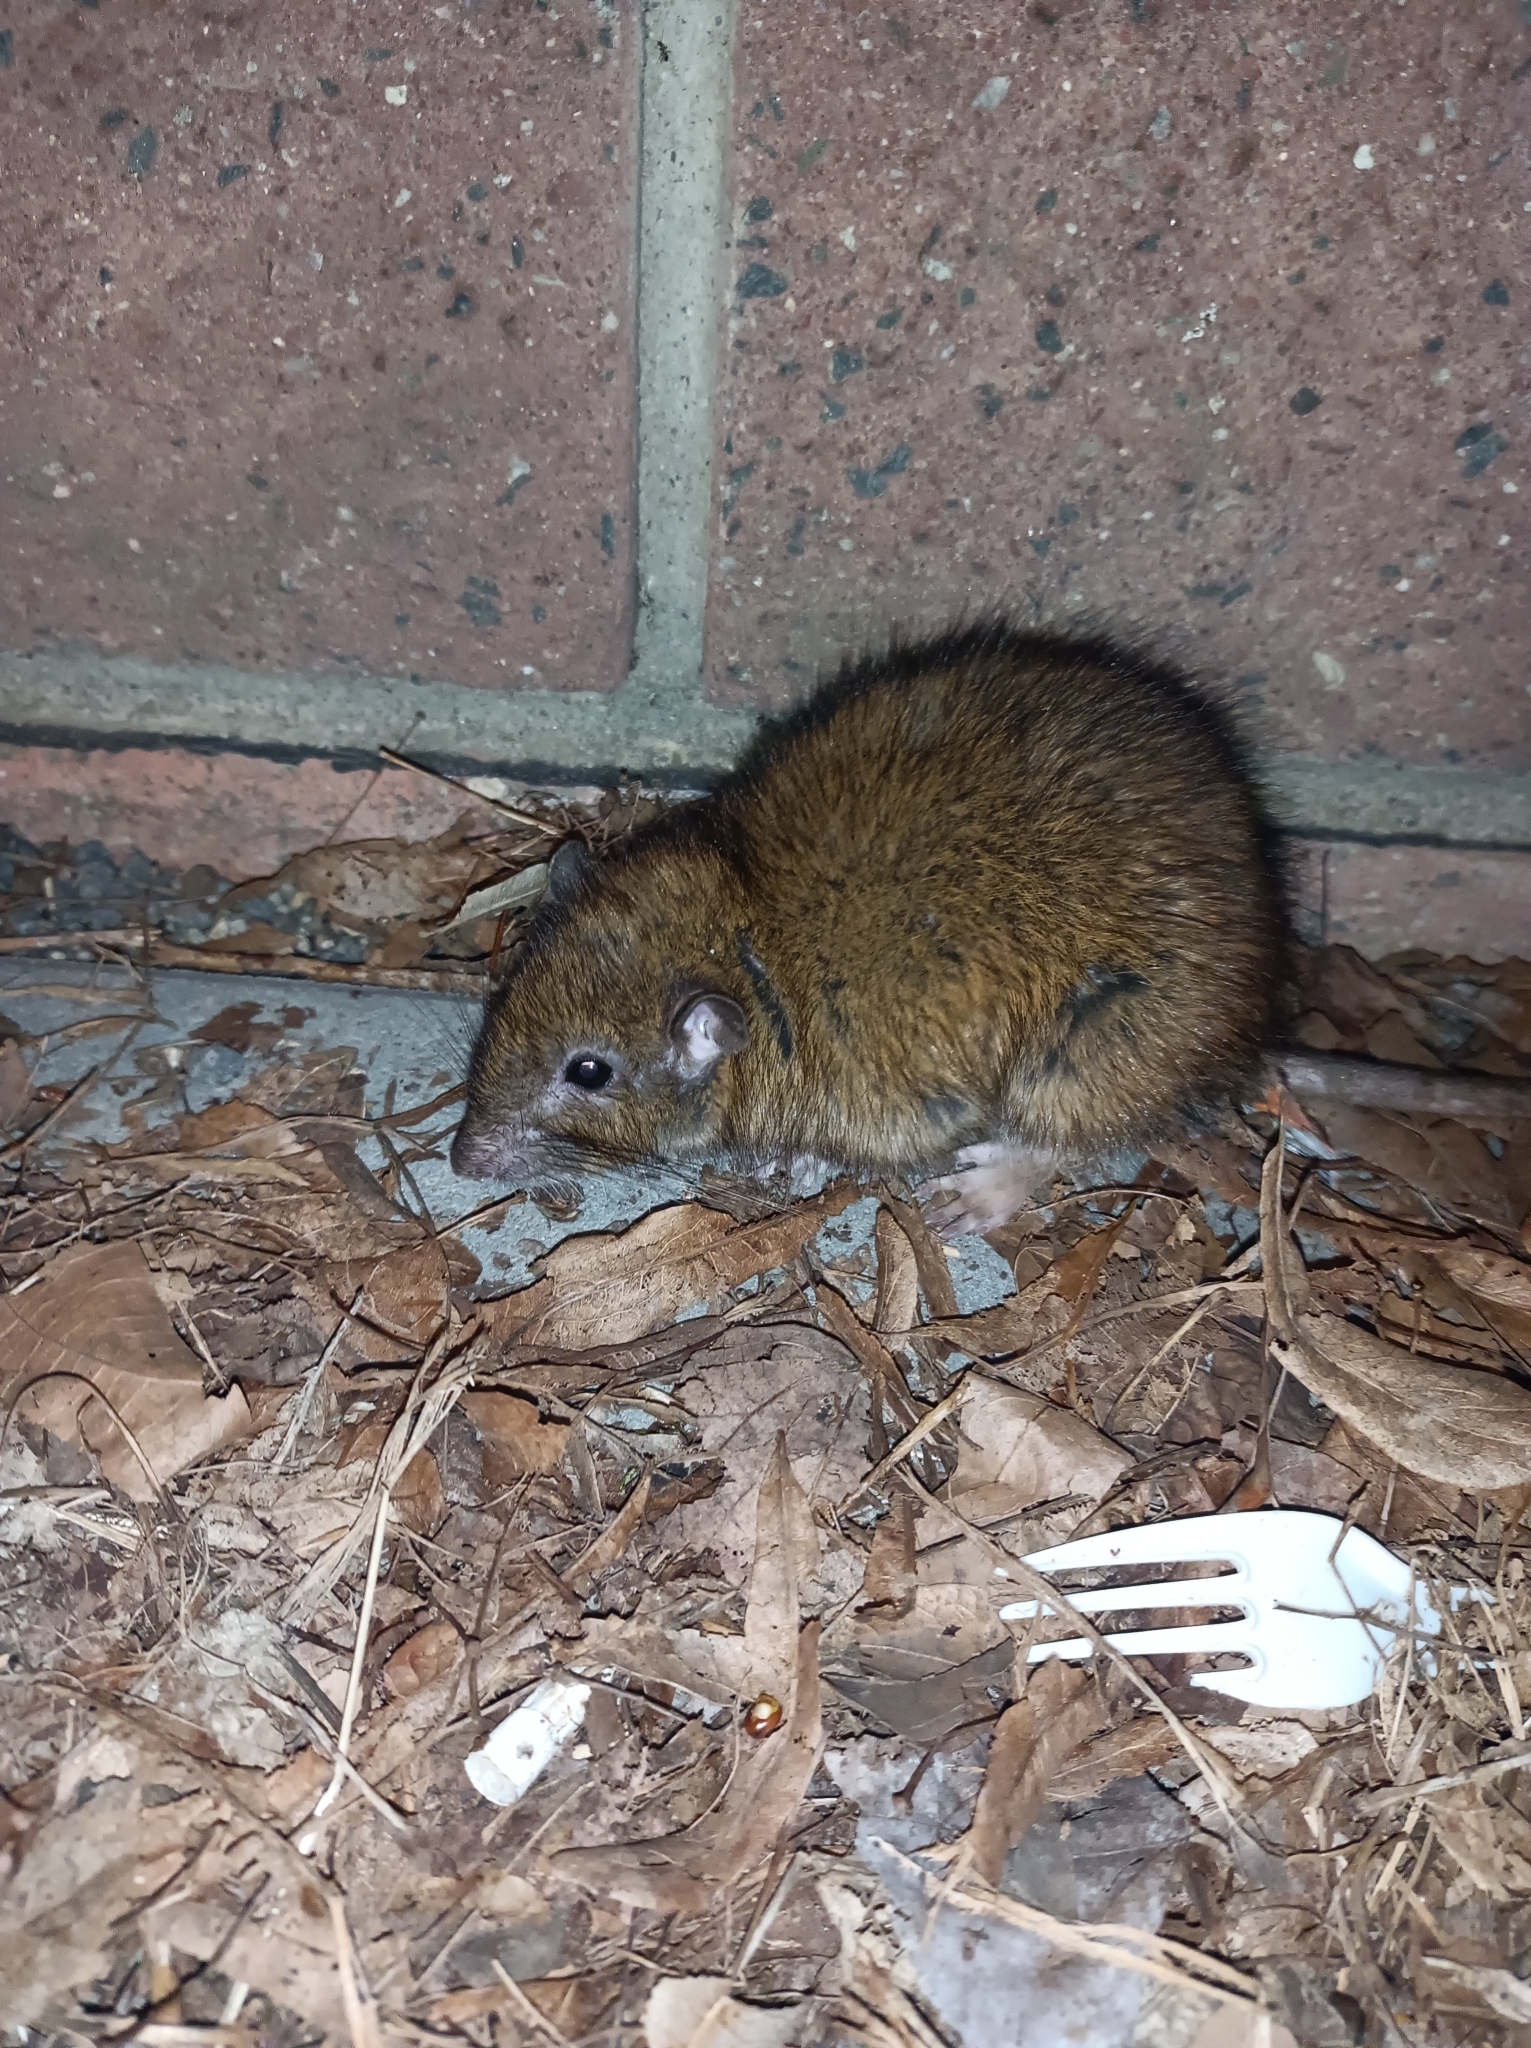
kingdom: Animalia
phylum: Chordata
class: Mammalia
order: Rodentia
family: Muridae
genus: Rattus
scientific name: Rattus norvegicus
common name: Brown rat
